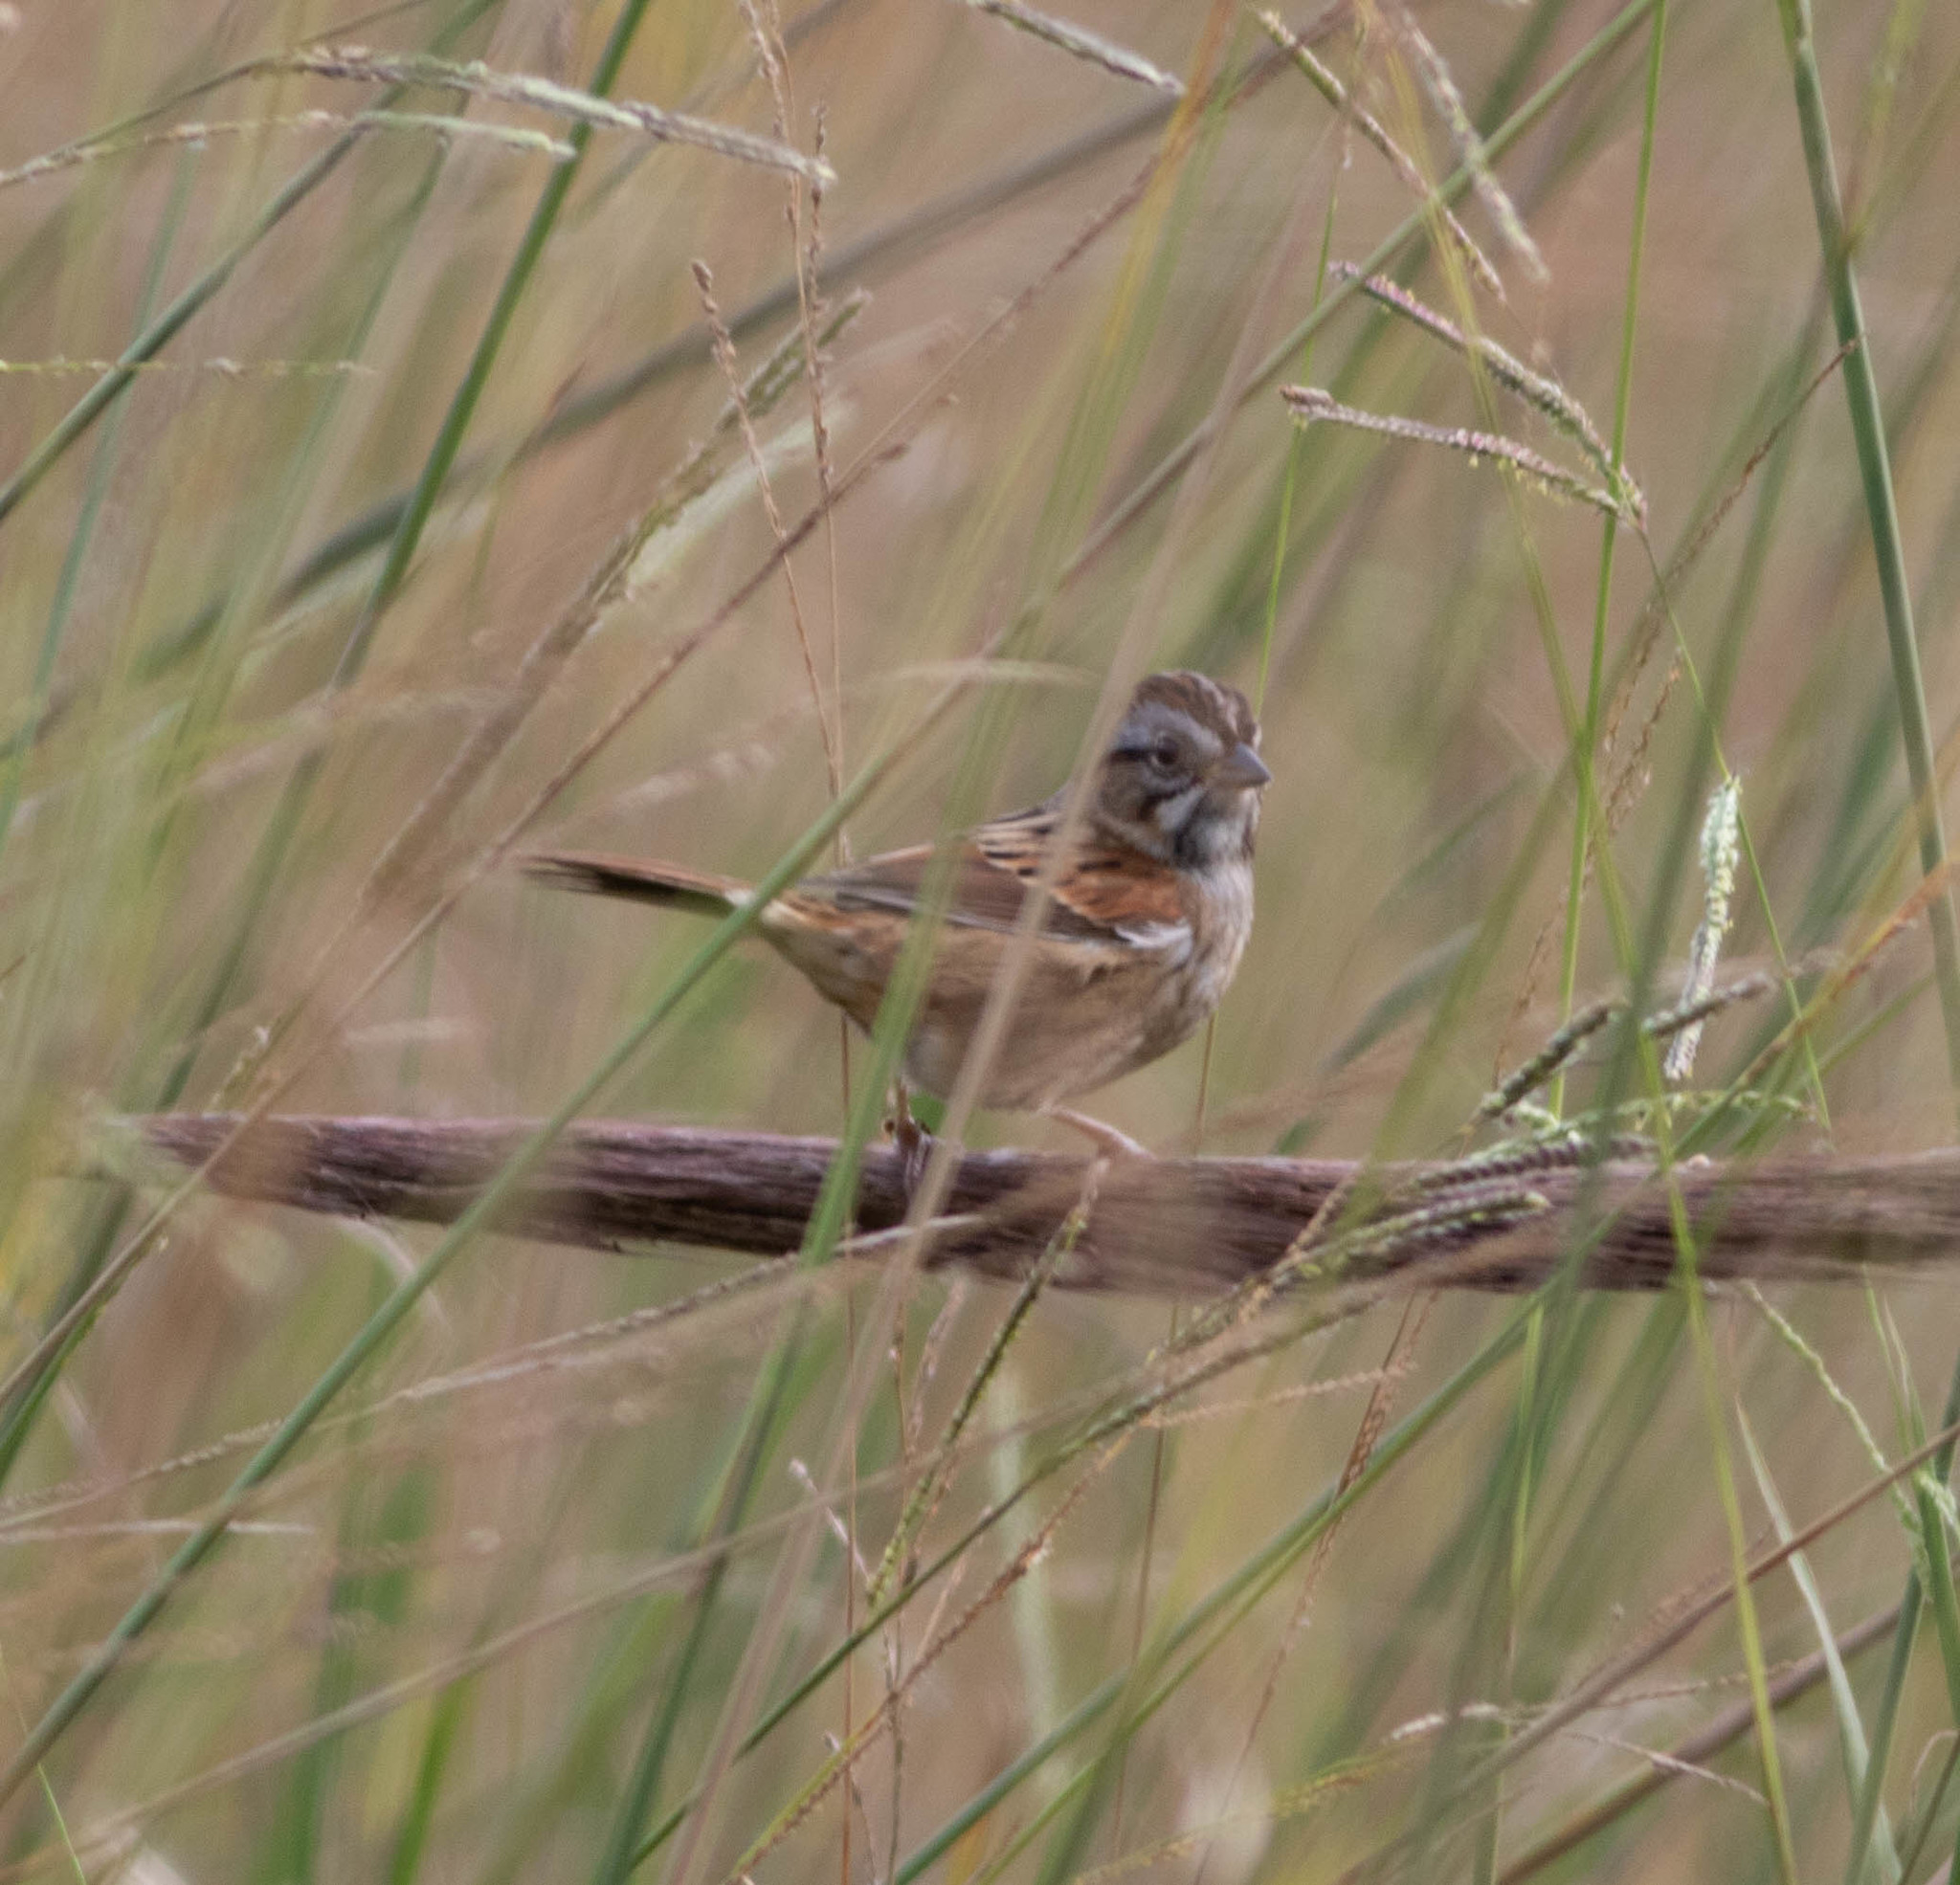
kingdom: Animalia
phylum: Chordata
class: Aves
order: Passeriformes
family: Passerellidae
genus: Melospiza
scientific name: Melospiza georgiana
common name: Swamp sparrow
